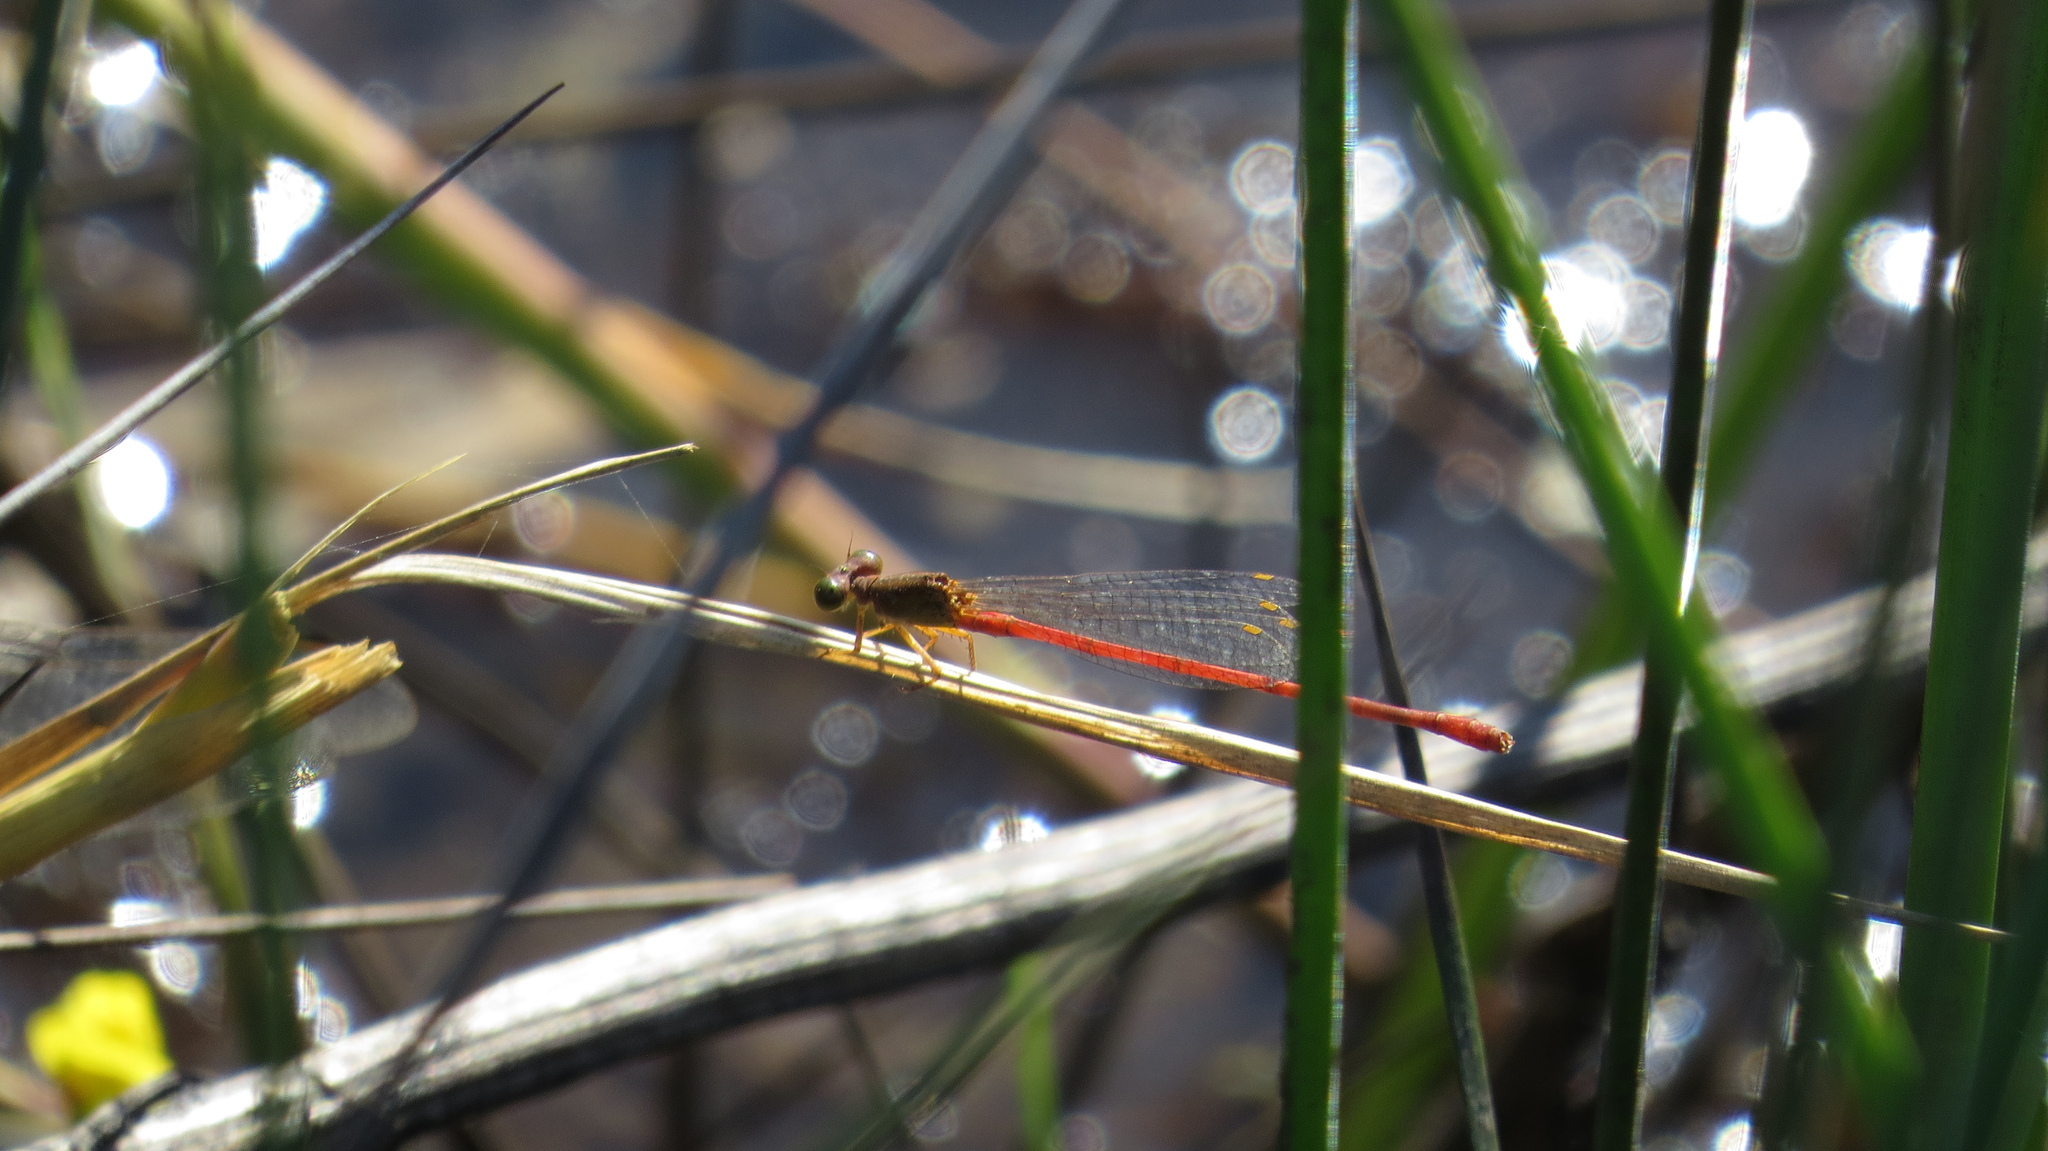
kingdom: Animalia
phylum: Arthropoda
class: Insecta
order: Odonata
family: Coenagrionidae
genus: Ceriagrion
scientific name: Ceriagrion aeruginosum
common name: Redtail
